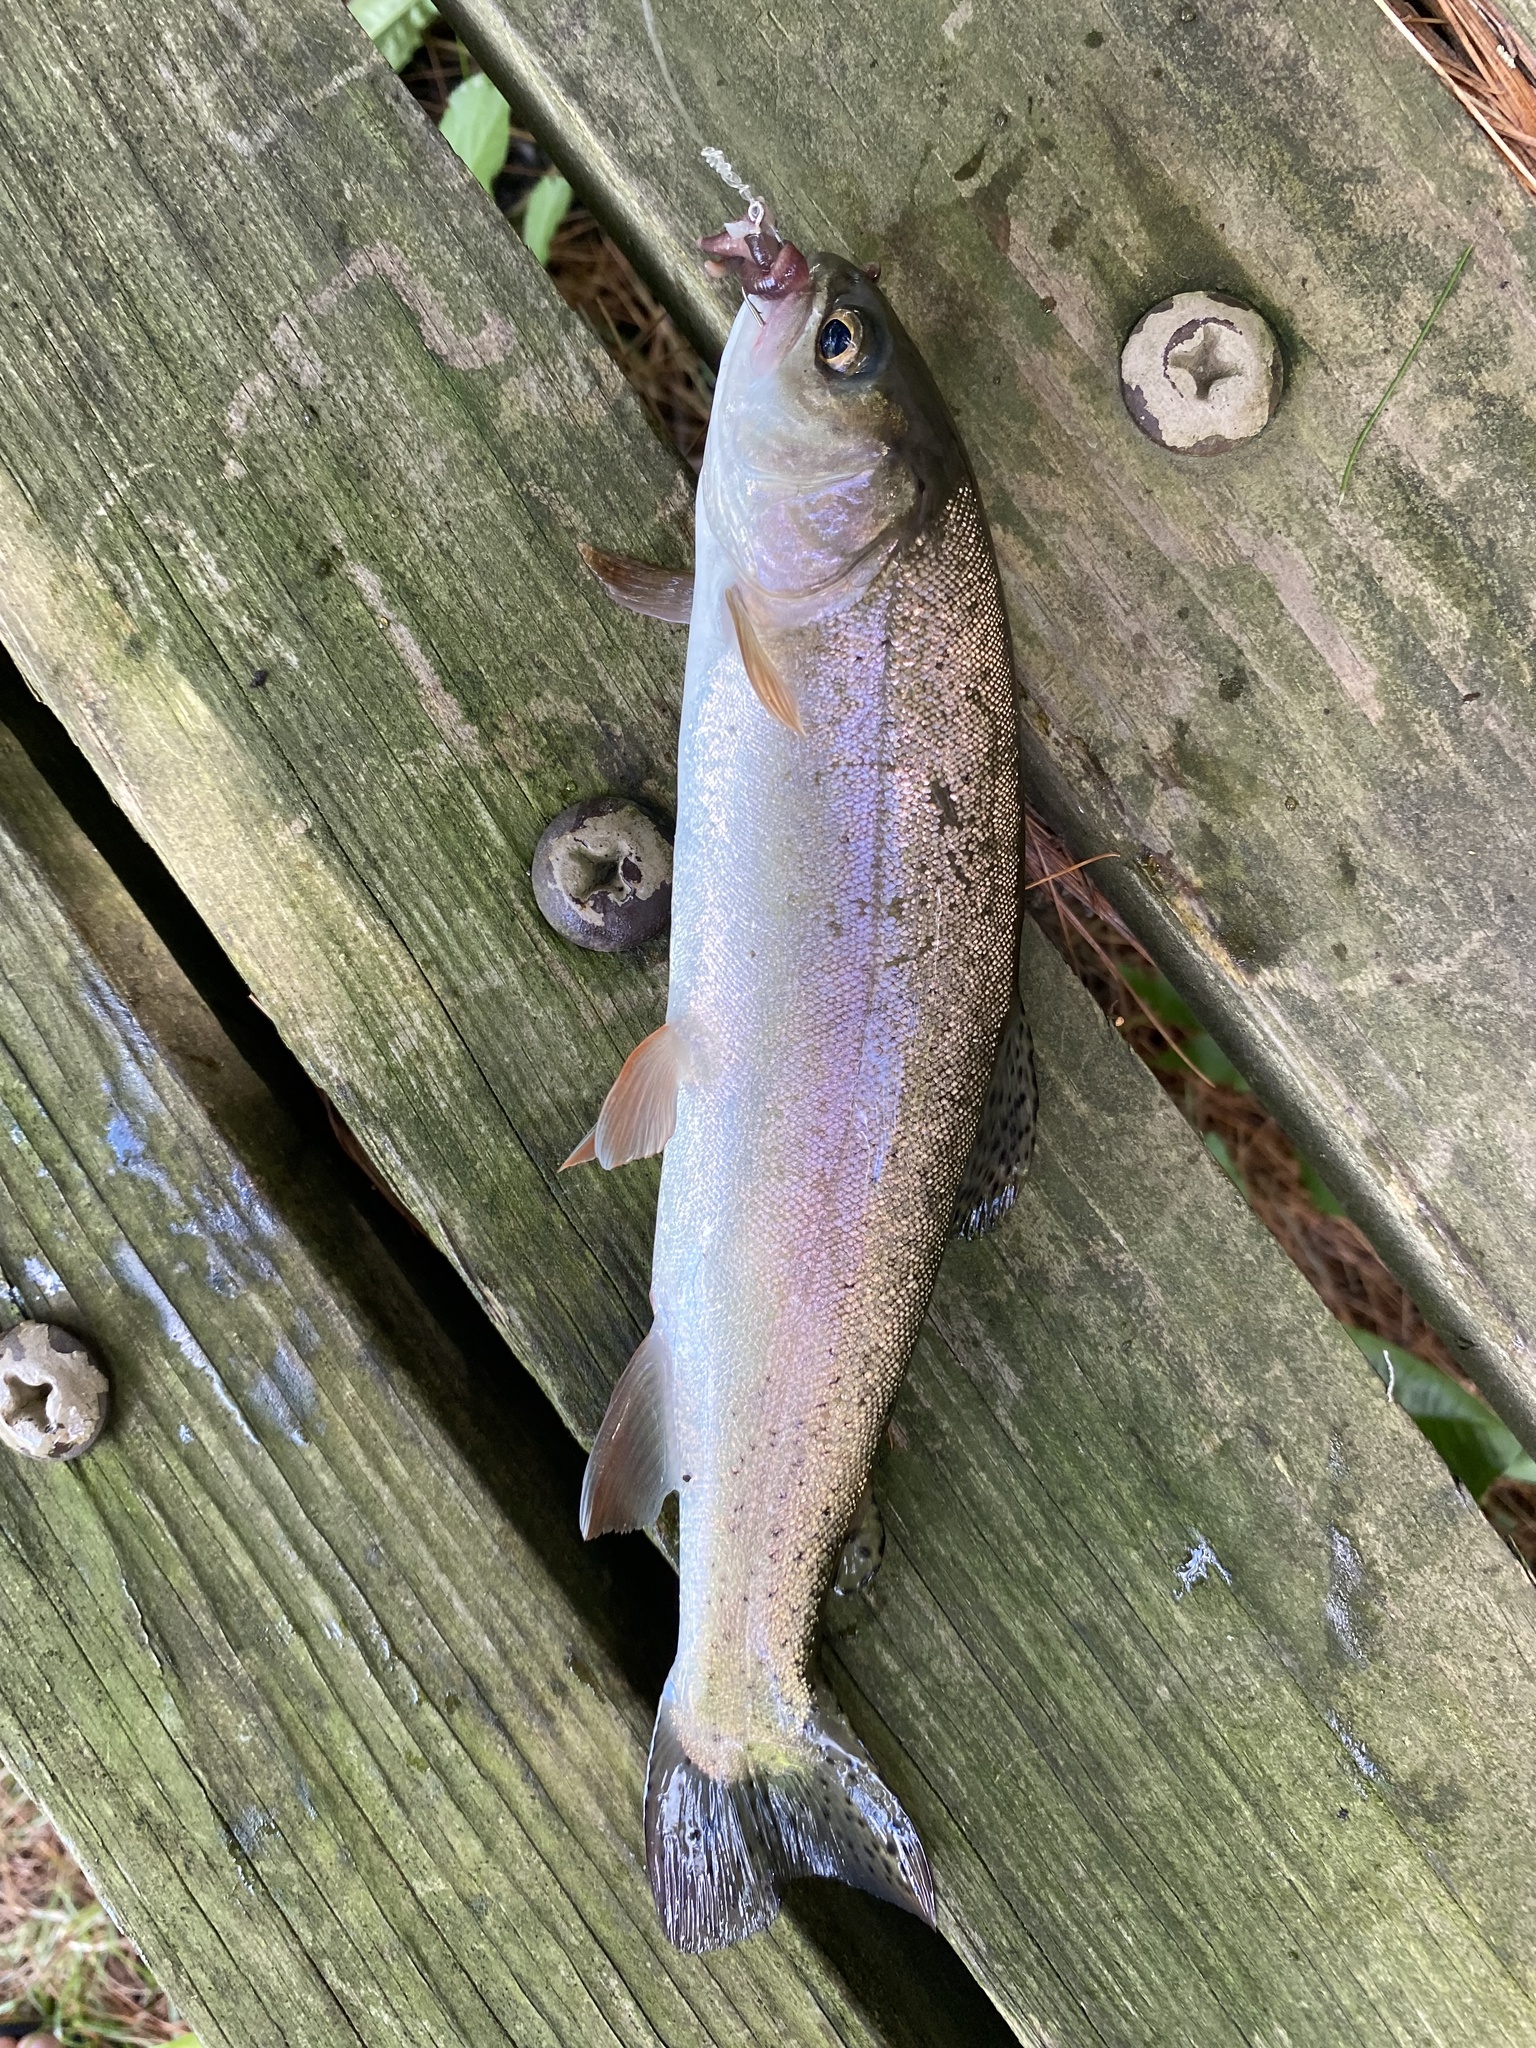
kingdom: Animalia
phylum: Chordata
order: Salmoniformes
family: Salmonidae
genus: Oncorhynchus
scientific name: Oncorhynchus mykiss
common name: Rainbow trout
